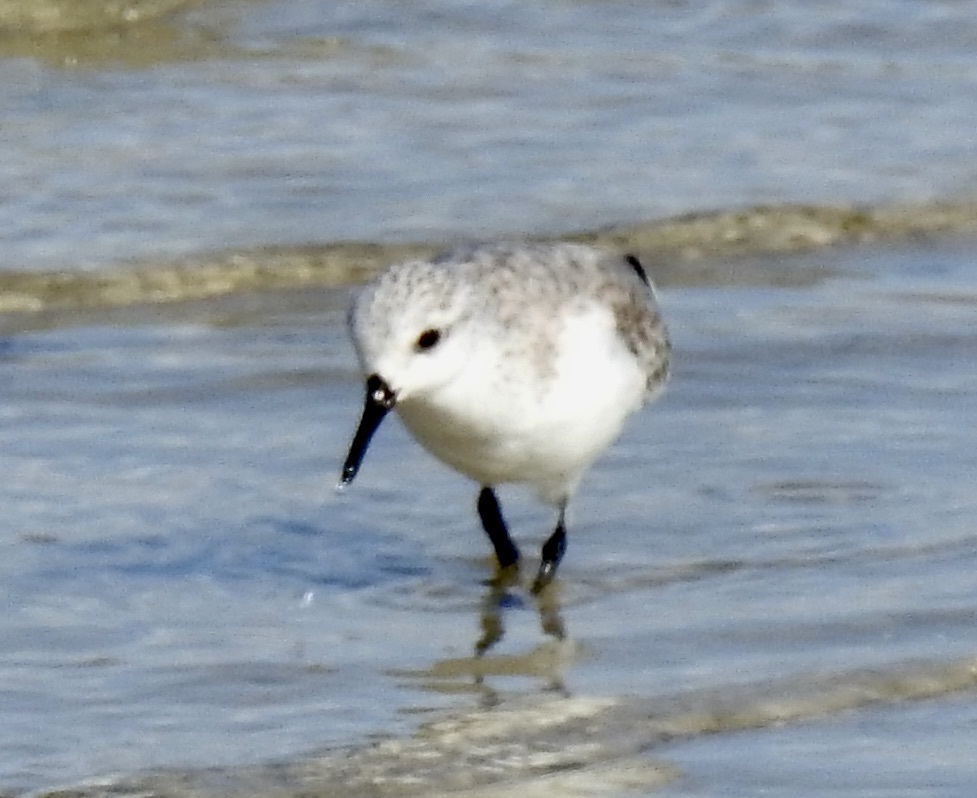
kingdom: Animalia
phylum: Chordata
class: Aves
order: Charadriiformes
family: Scolopacidae
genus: Calidris
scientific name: Calidris alba
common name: Sanderling
